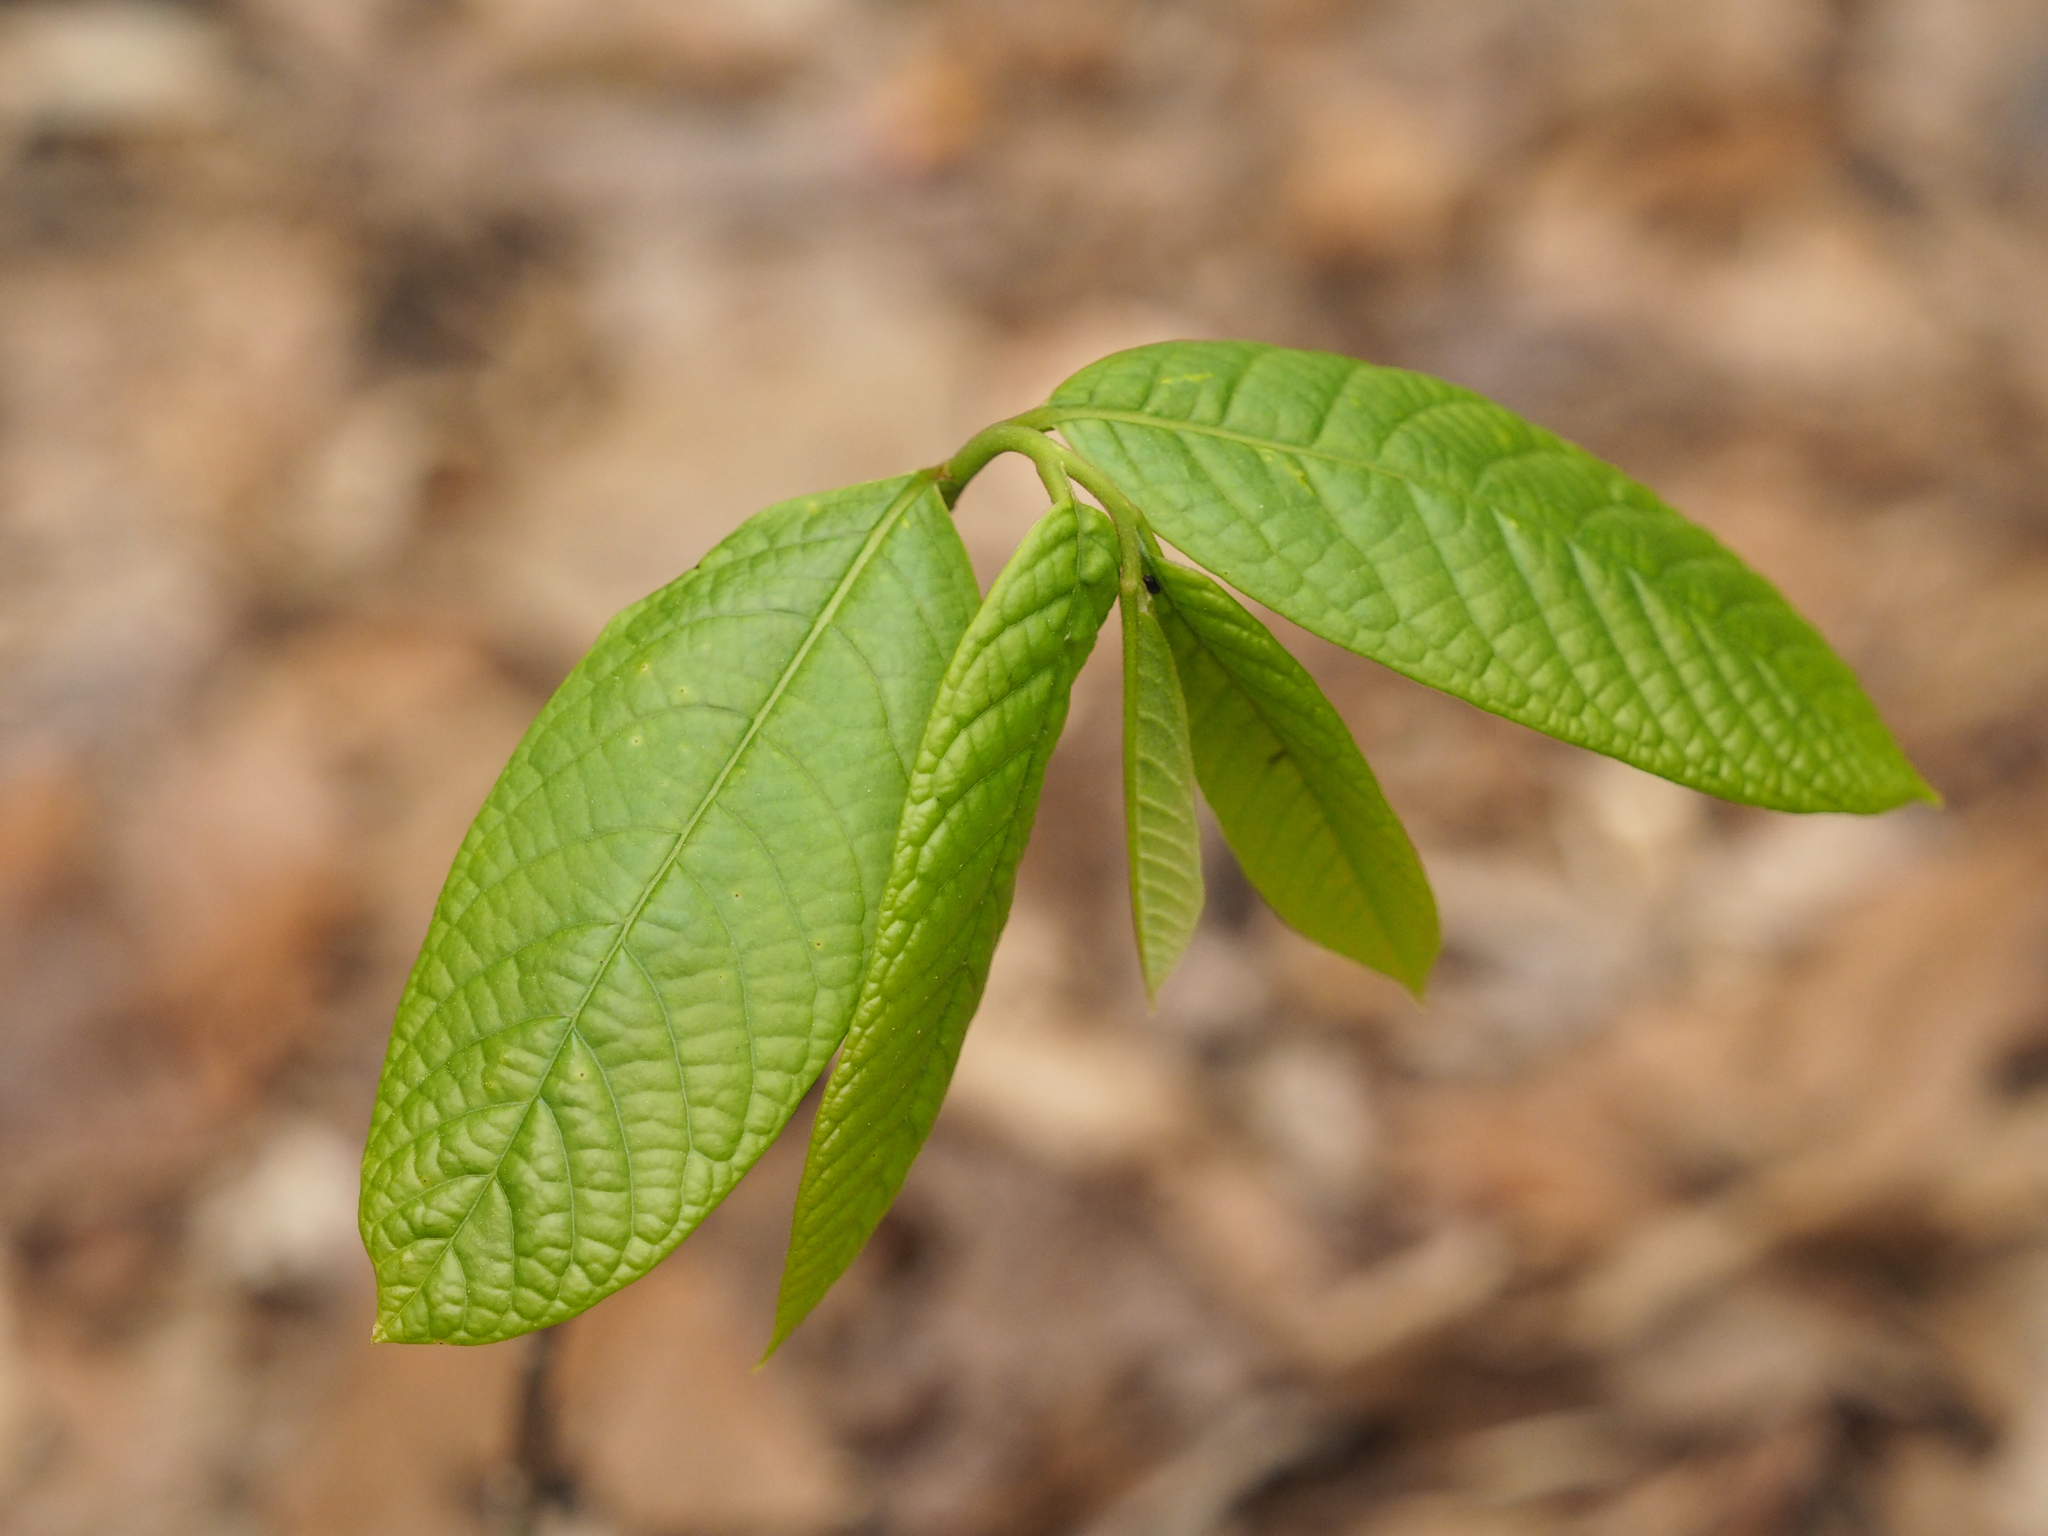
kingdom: Plantae
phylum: Tracheophyta
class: Magnoliopsida
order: Magnoliales
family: Annonaceae
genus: Asimina
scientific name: Asimina triloba
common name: Dog-banana
